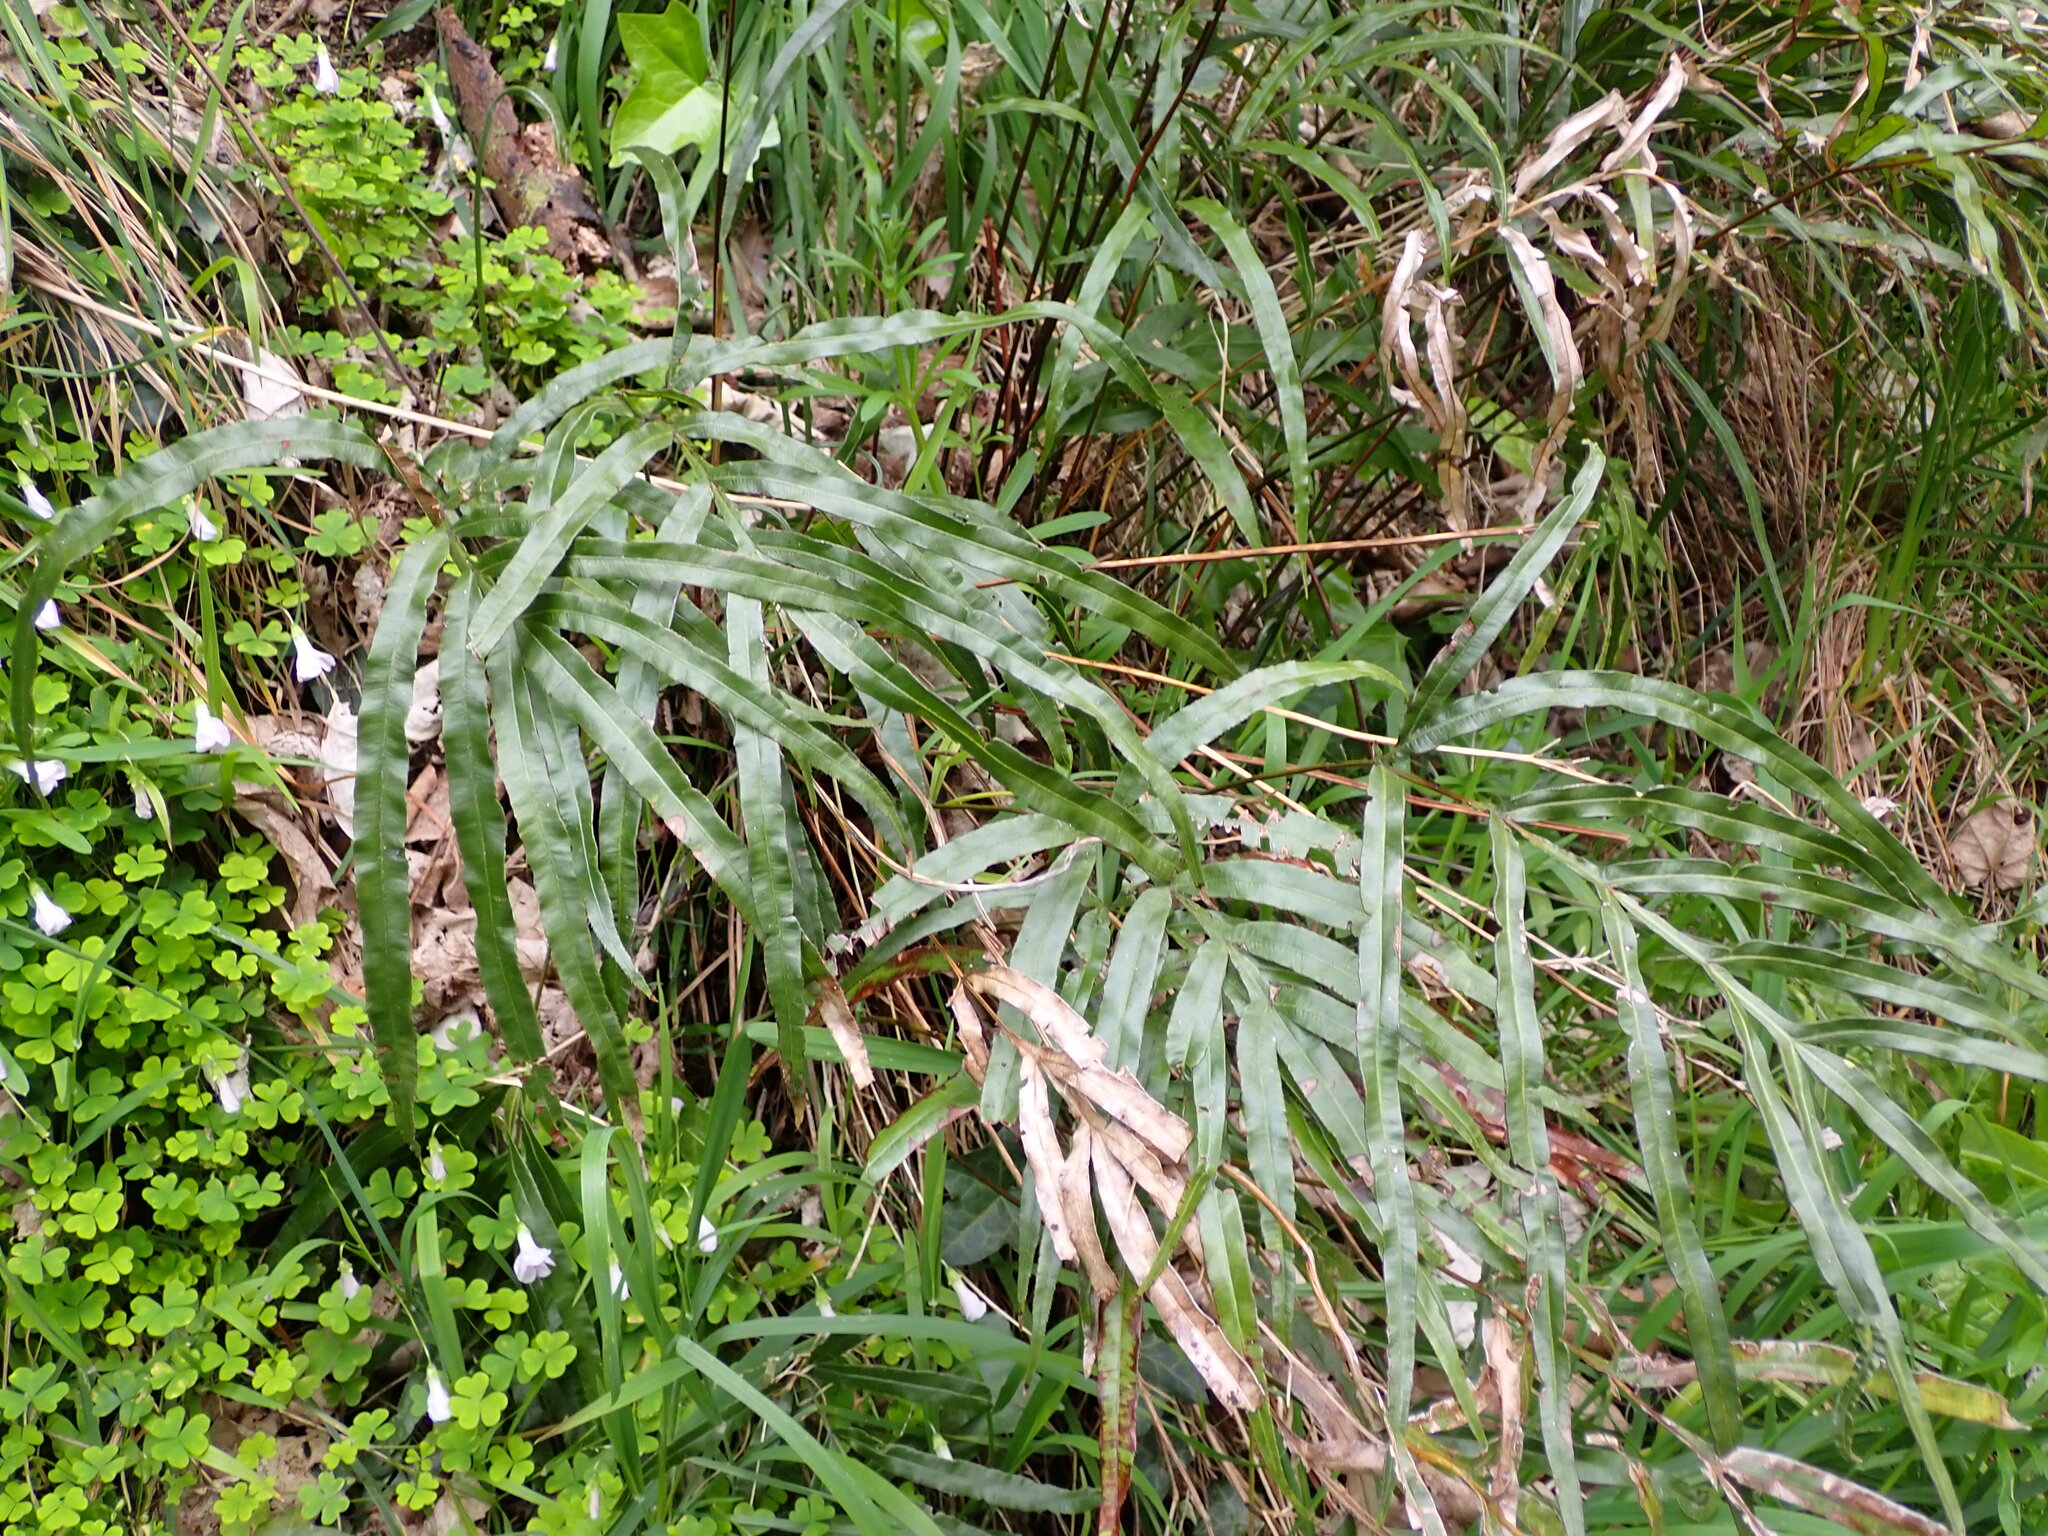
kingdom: Plantae
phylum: Tracheophyta
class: Polypodiopsida
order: Polypodiales
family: Pteridaceae
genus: Pteris
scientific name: Pteris cretica
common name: Ribbon fern
